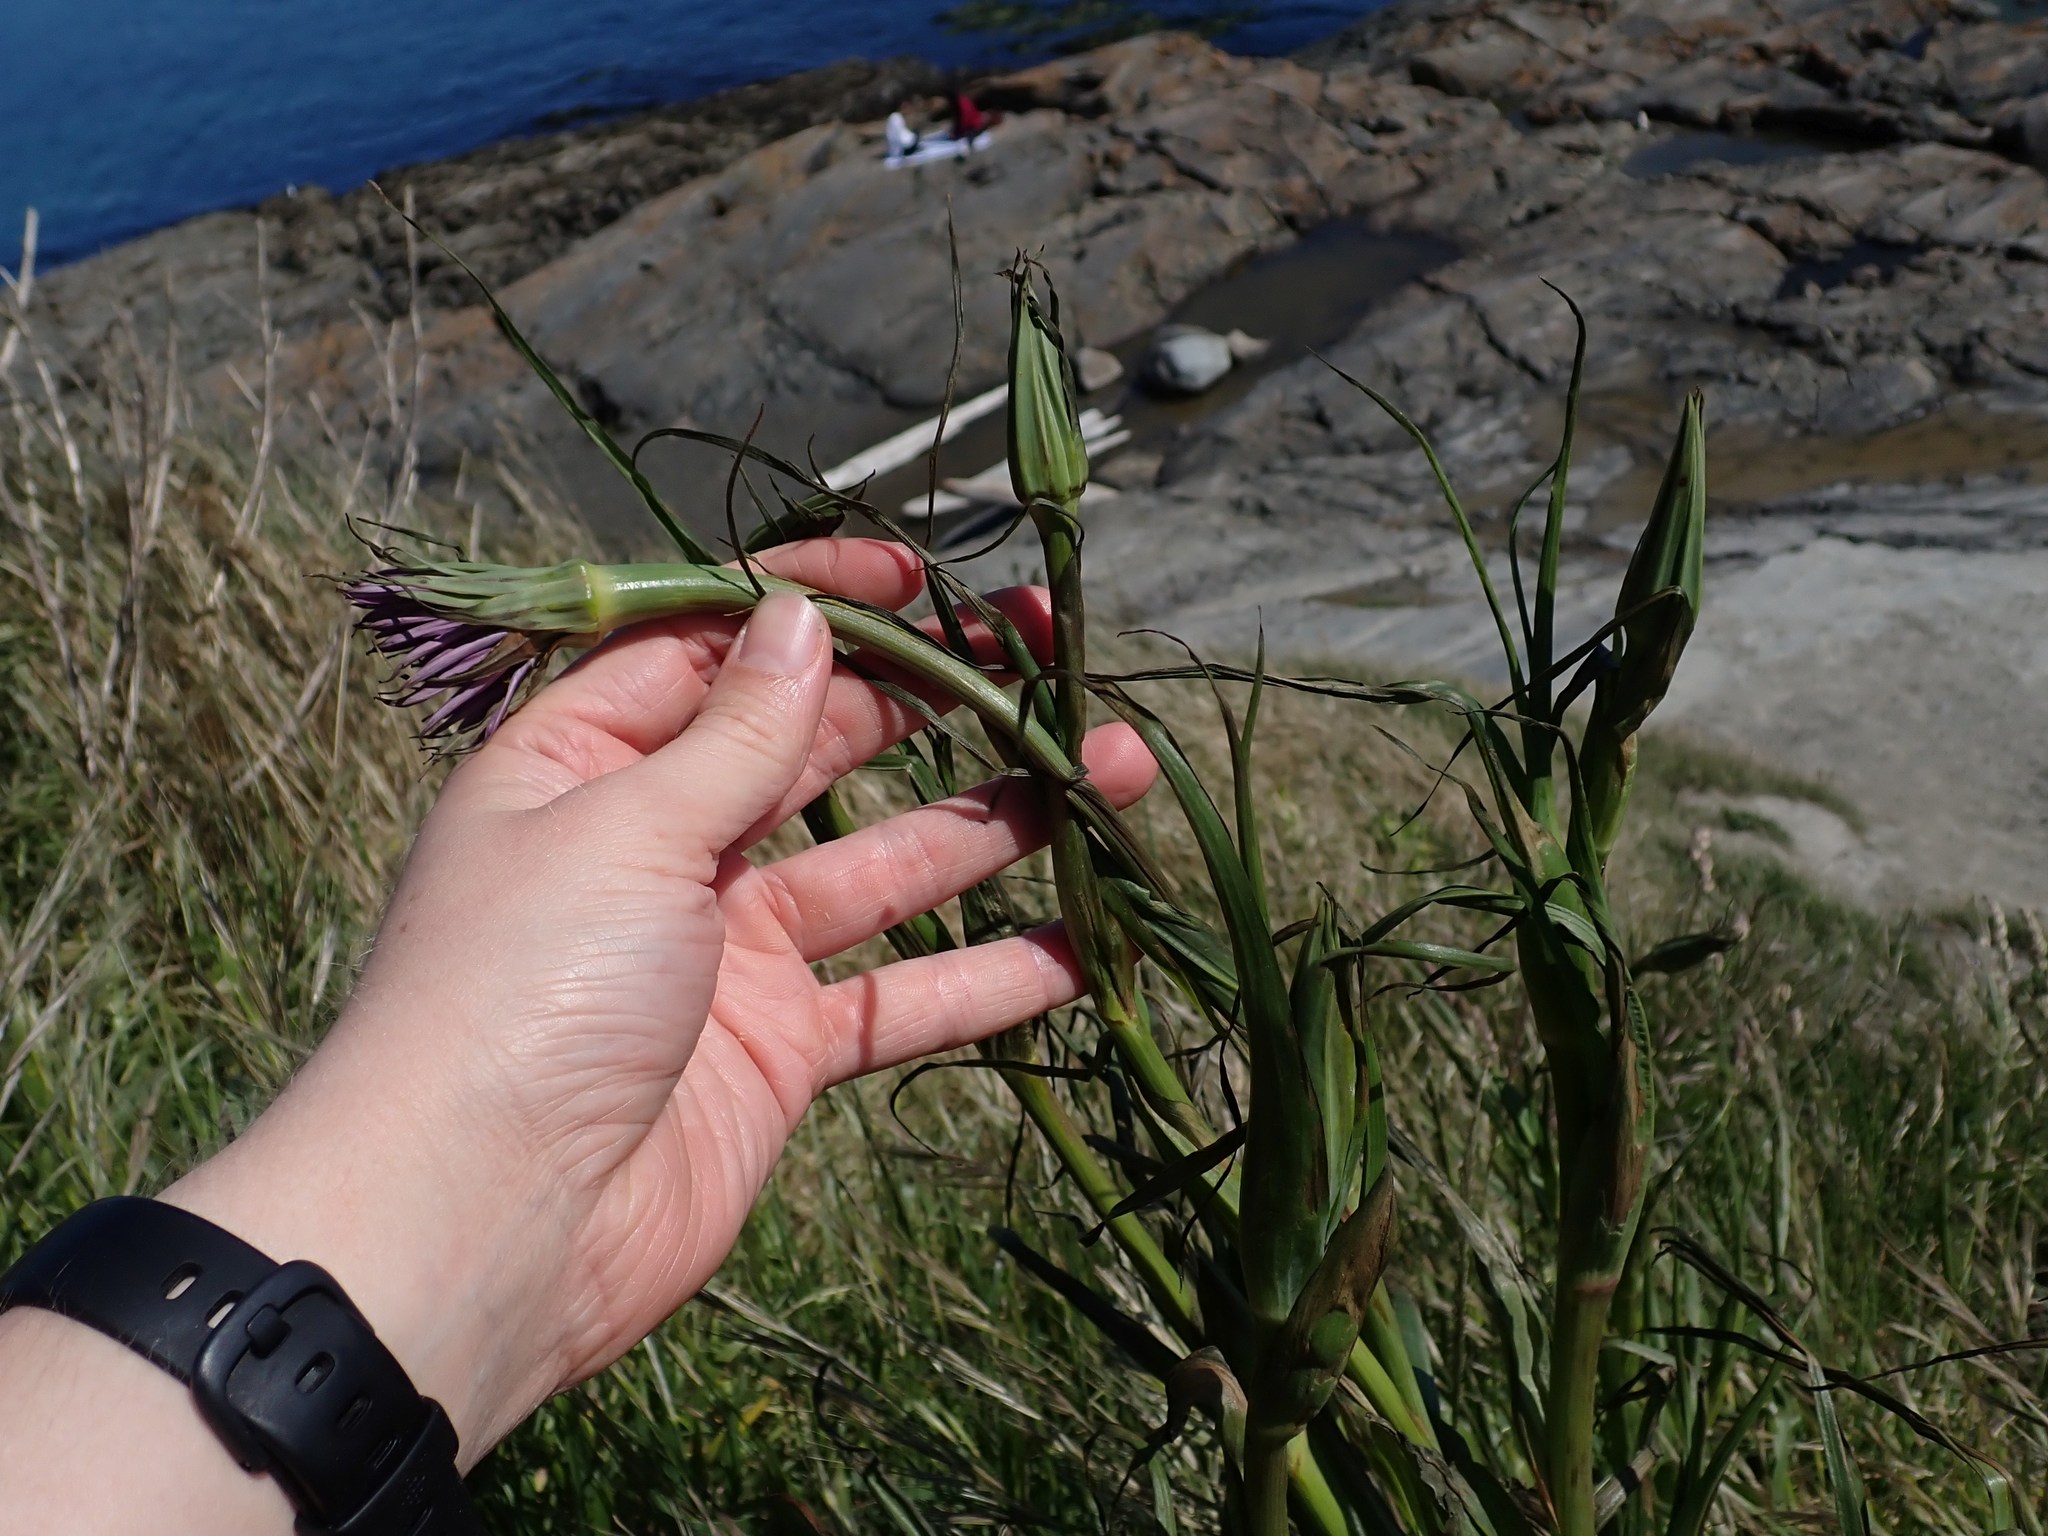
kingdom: Plantae
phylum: Tracheophyta
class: Magnoliopsida
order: Asterales
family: Asteraceae
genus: Tragopogon
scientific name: Tragopogon porrifolius
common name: Salsify
